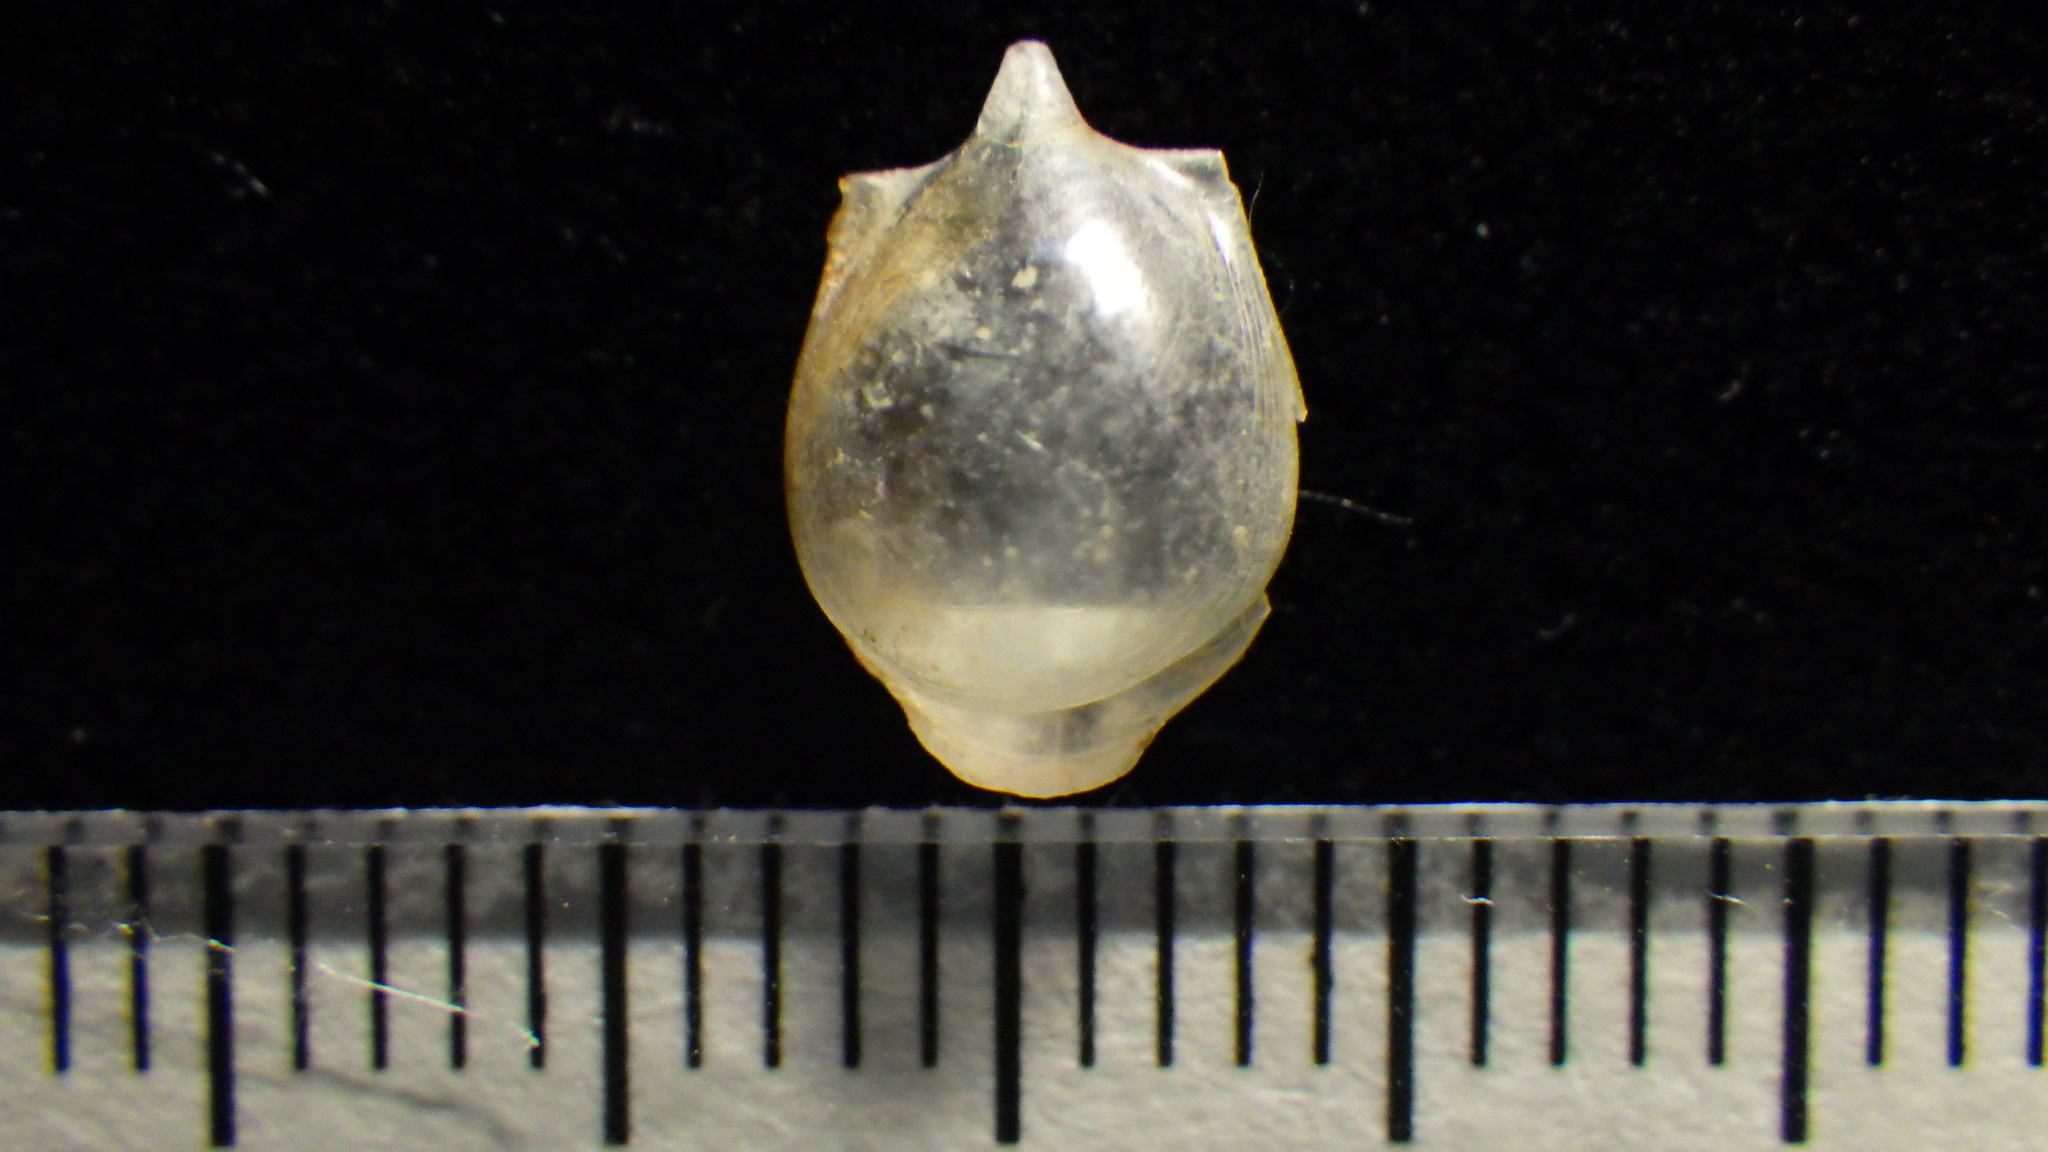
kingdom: Animalia
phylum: Mollusca
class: Gastropoda
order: Pteropoda
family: Cavoliniidae
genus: Cavolinia
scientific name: Cavolinia gibbosa
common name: Gibbose cavoline
